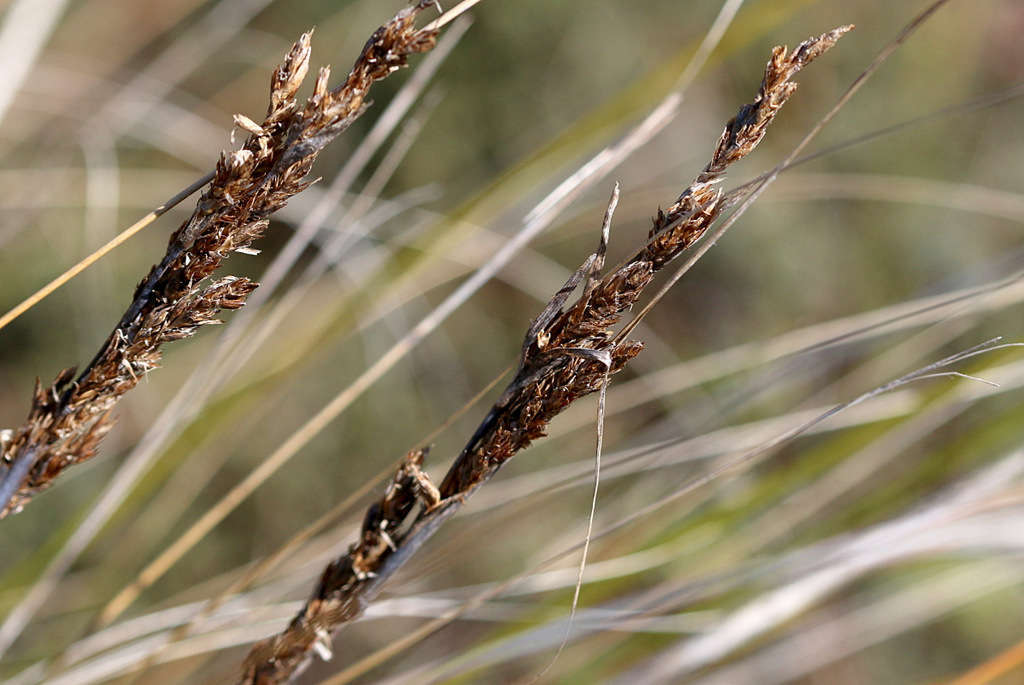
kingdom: Plantae
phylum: Tracheophyta
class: Liliopsida
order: Poales
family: Cyperaceae
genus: Gahnia
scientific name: Gahnia filum
